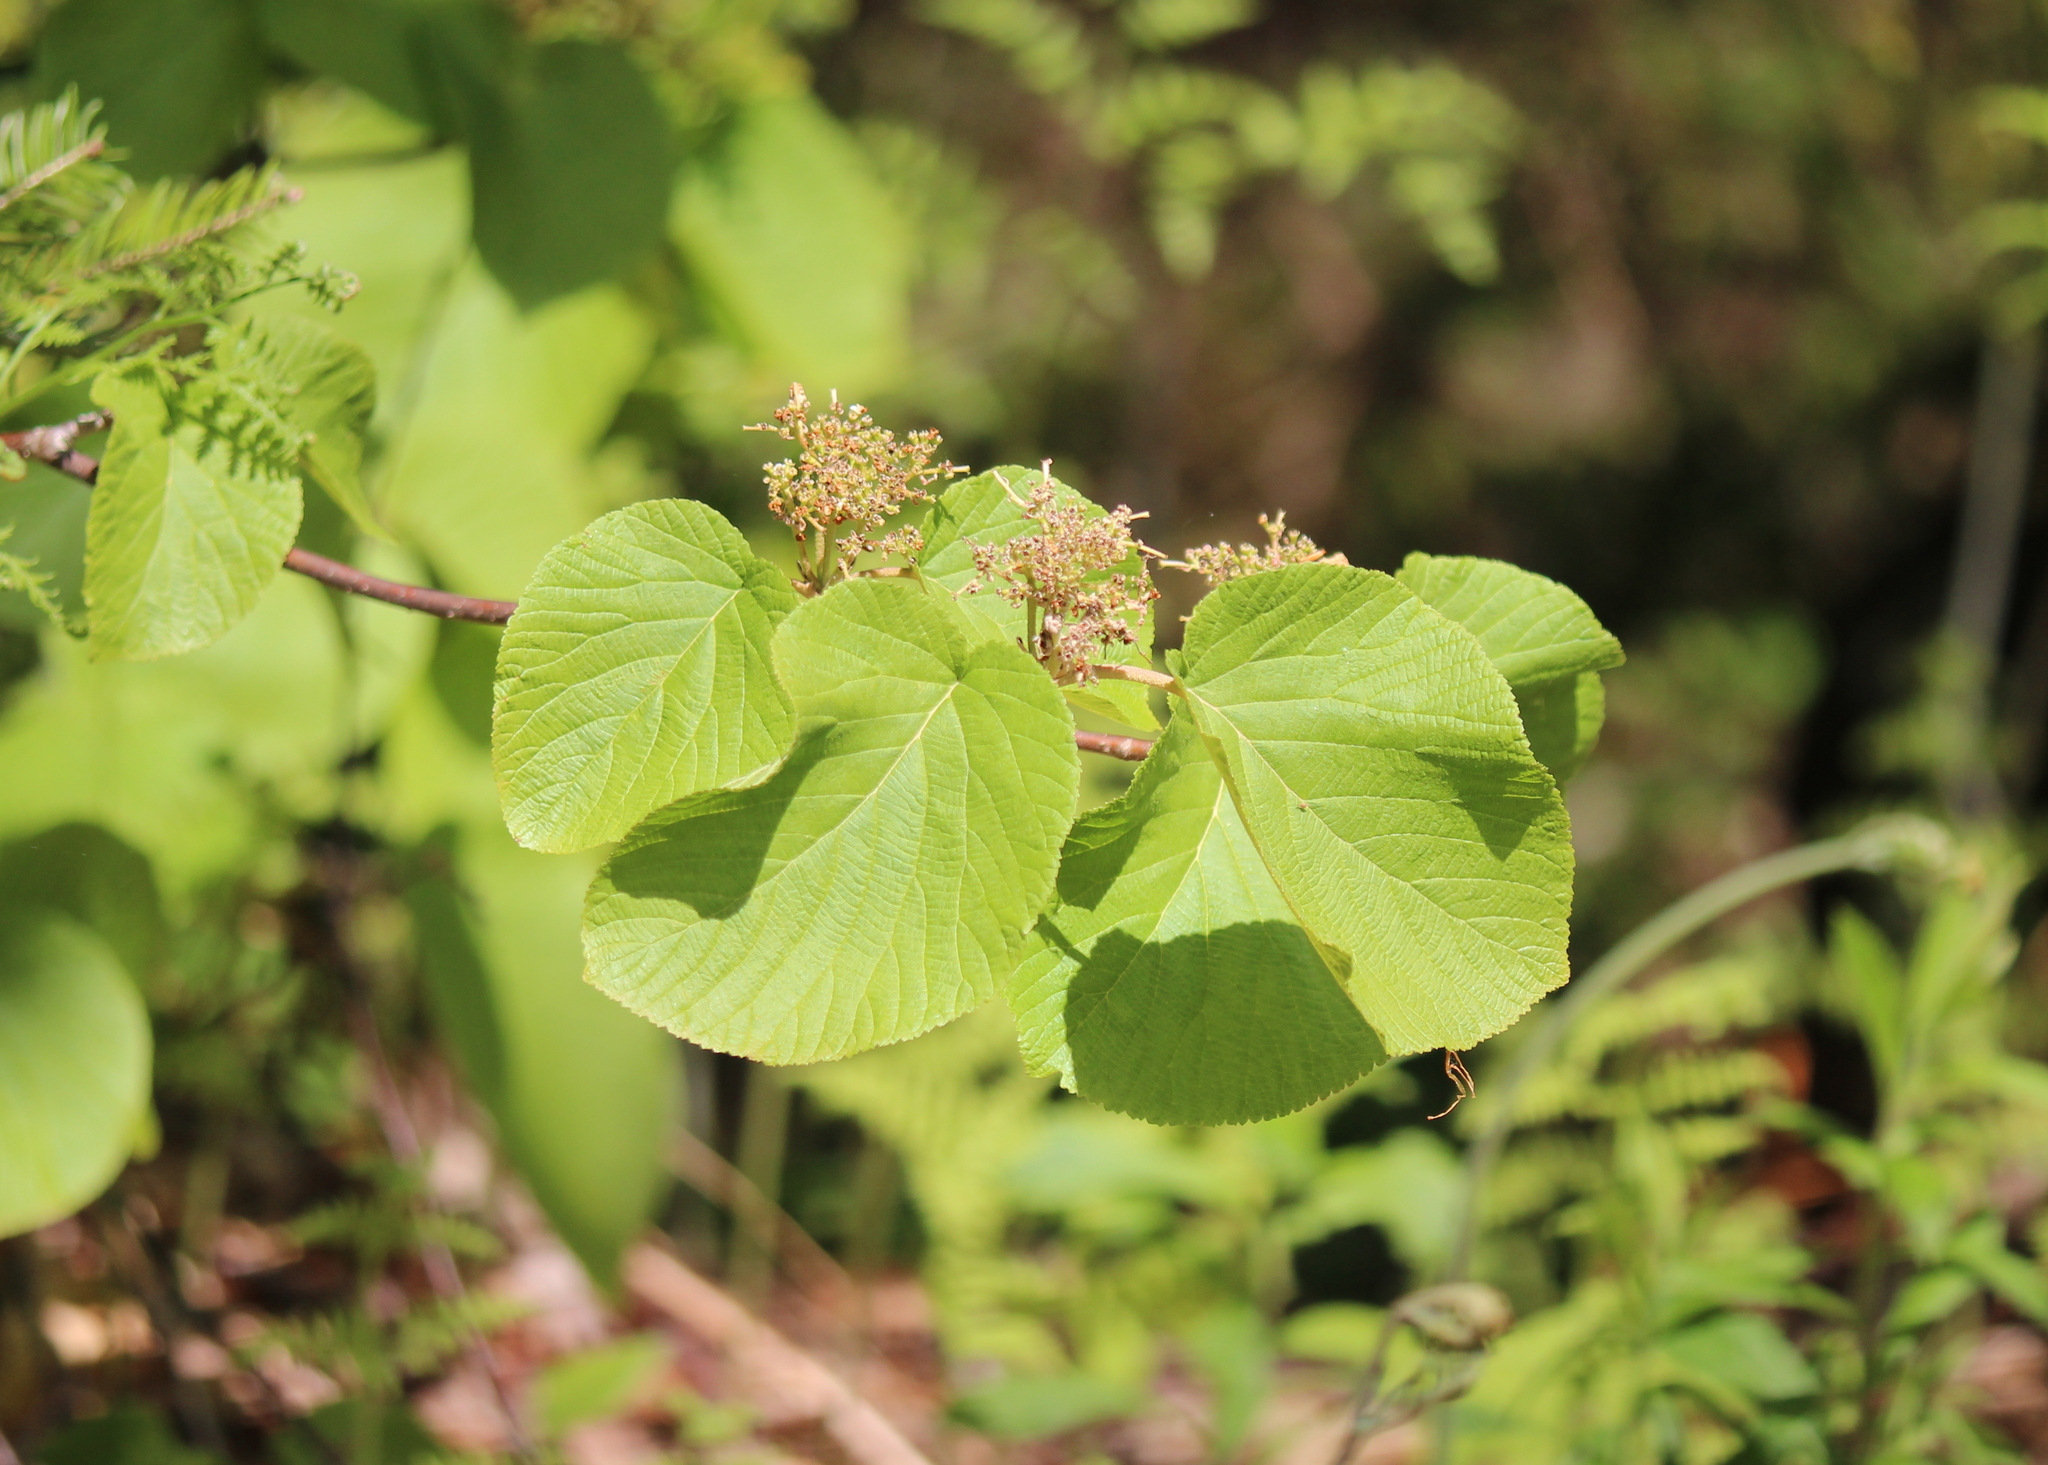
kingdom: Plantae
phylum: Tracheophyta
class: Magnoliopsida
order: Dipsacales
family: Viburnaceae
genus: Viburnum
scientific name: Viburnum lantanoides
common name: Hobblebush
